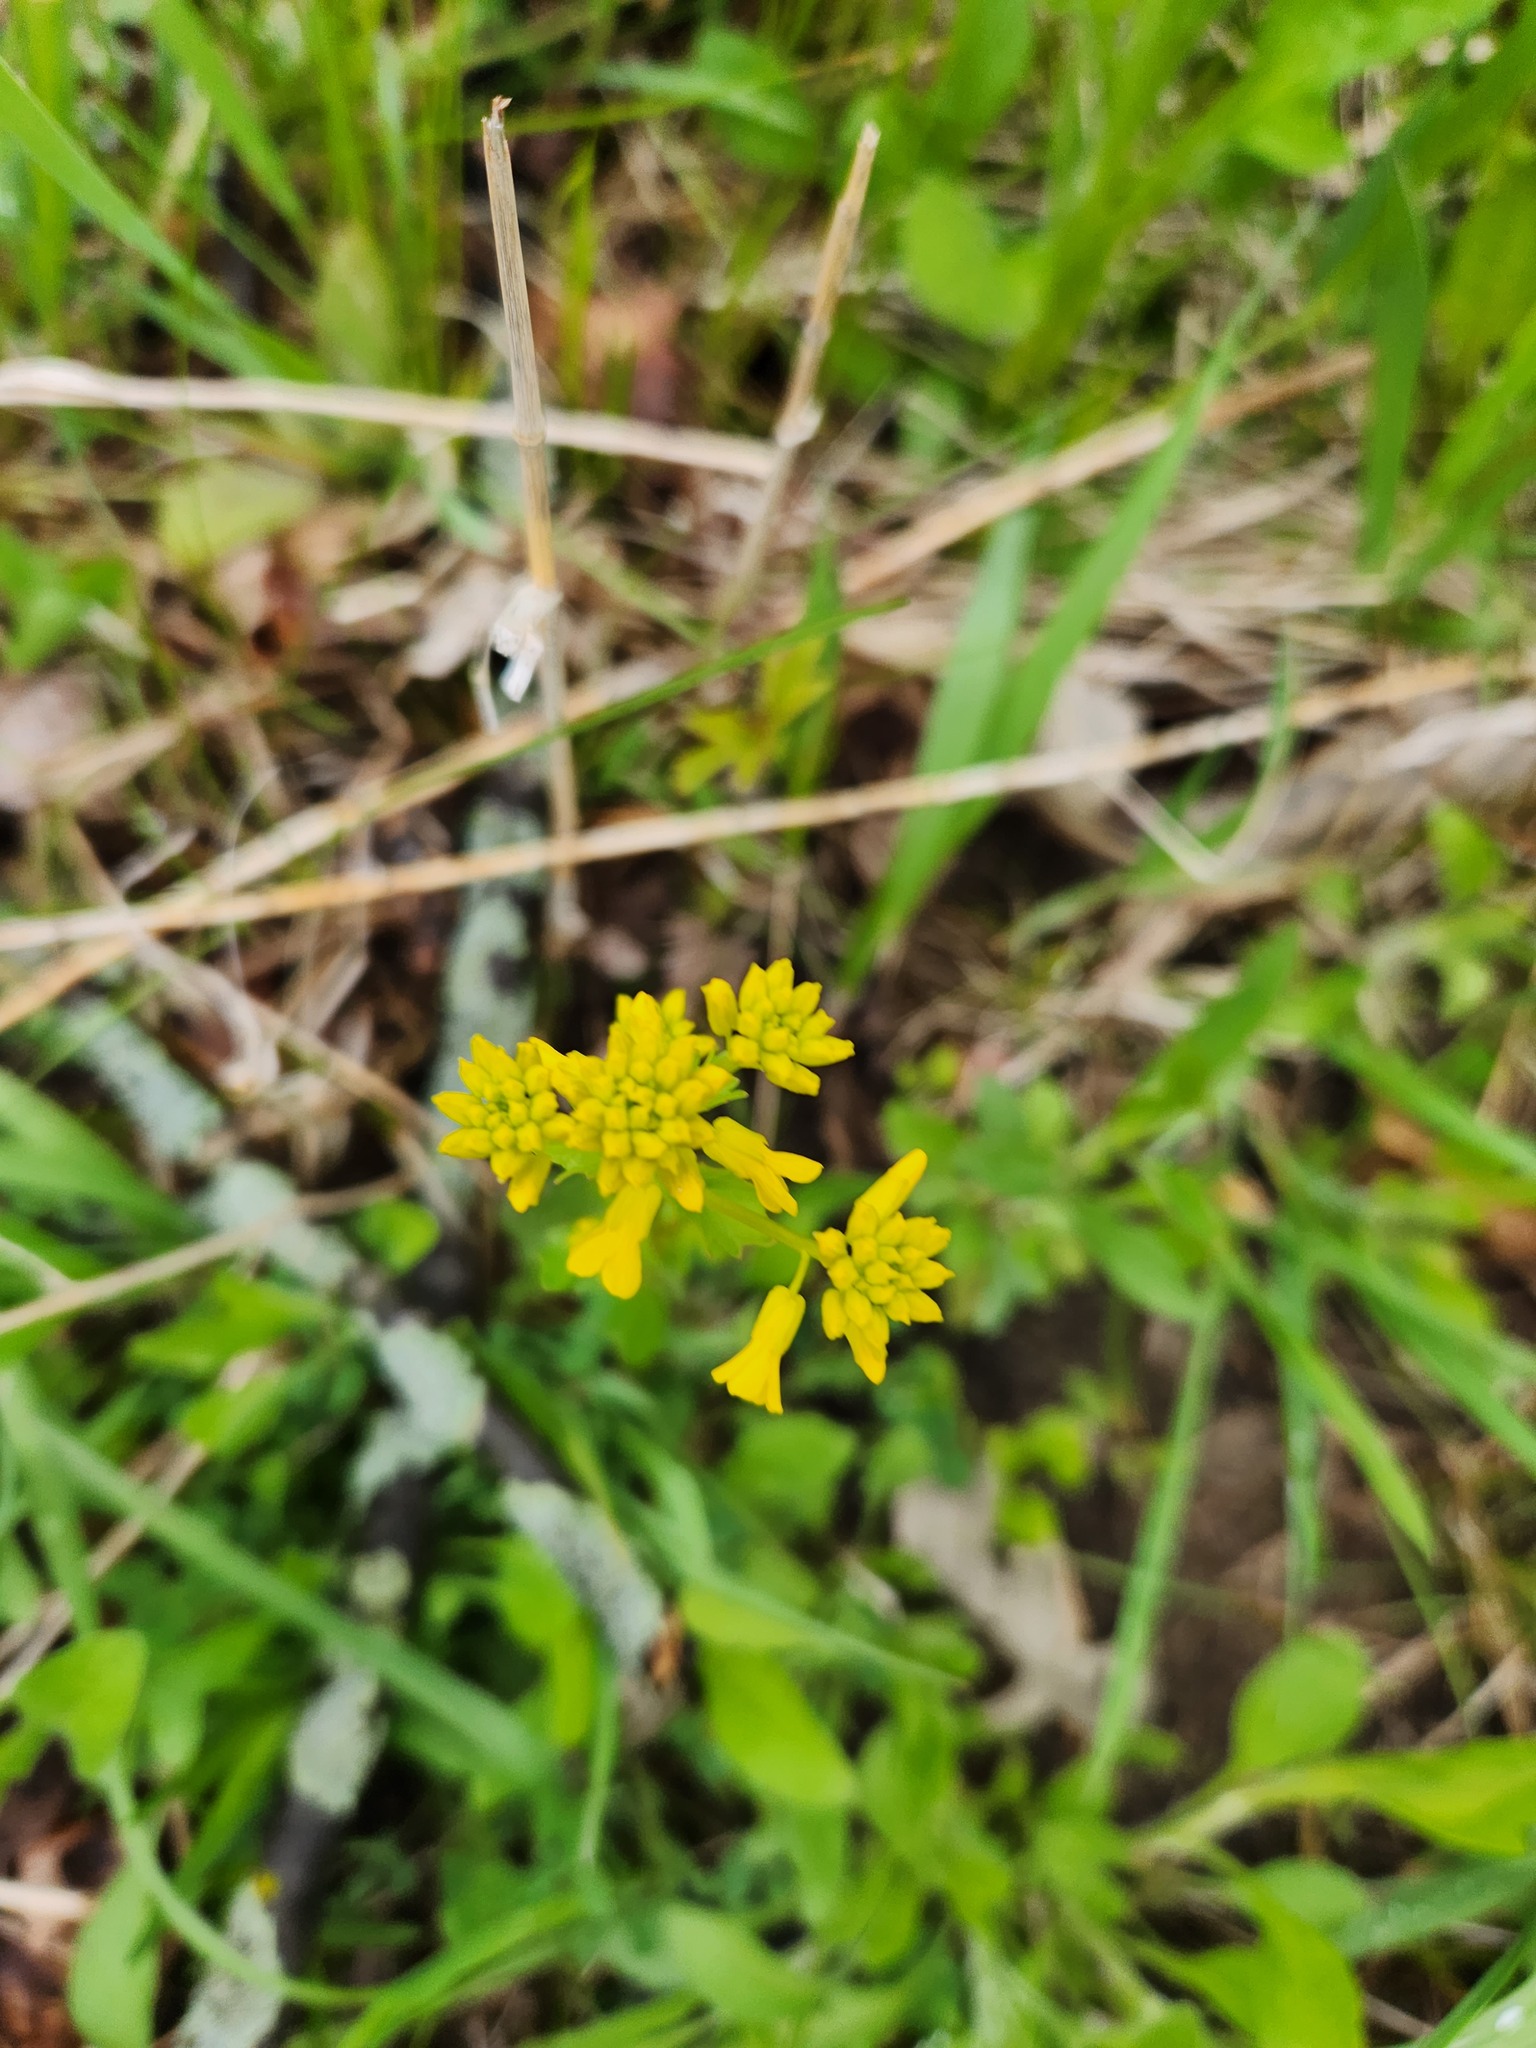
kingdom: Plantae
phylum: Tracheophyta
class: Magnoliopsida
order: Brassicales
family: Brassicaceae
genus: Barbarea
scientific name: Barbarea vulgaris
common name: Cressy-greens
